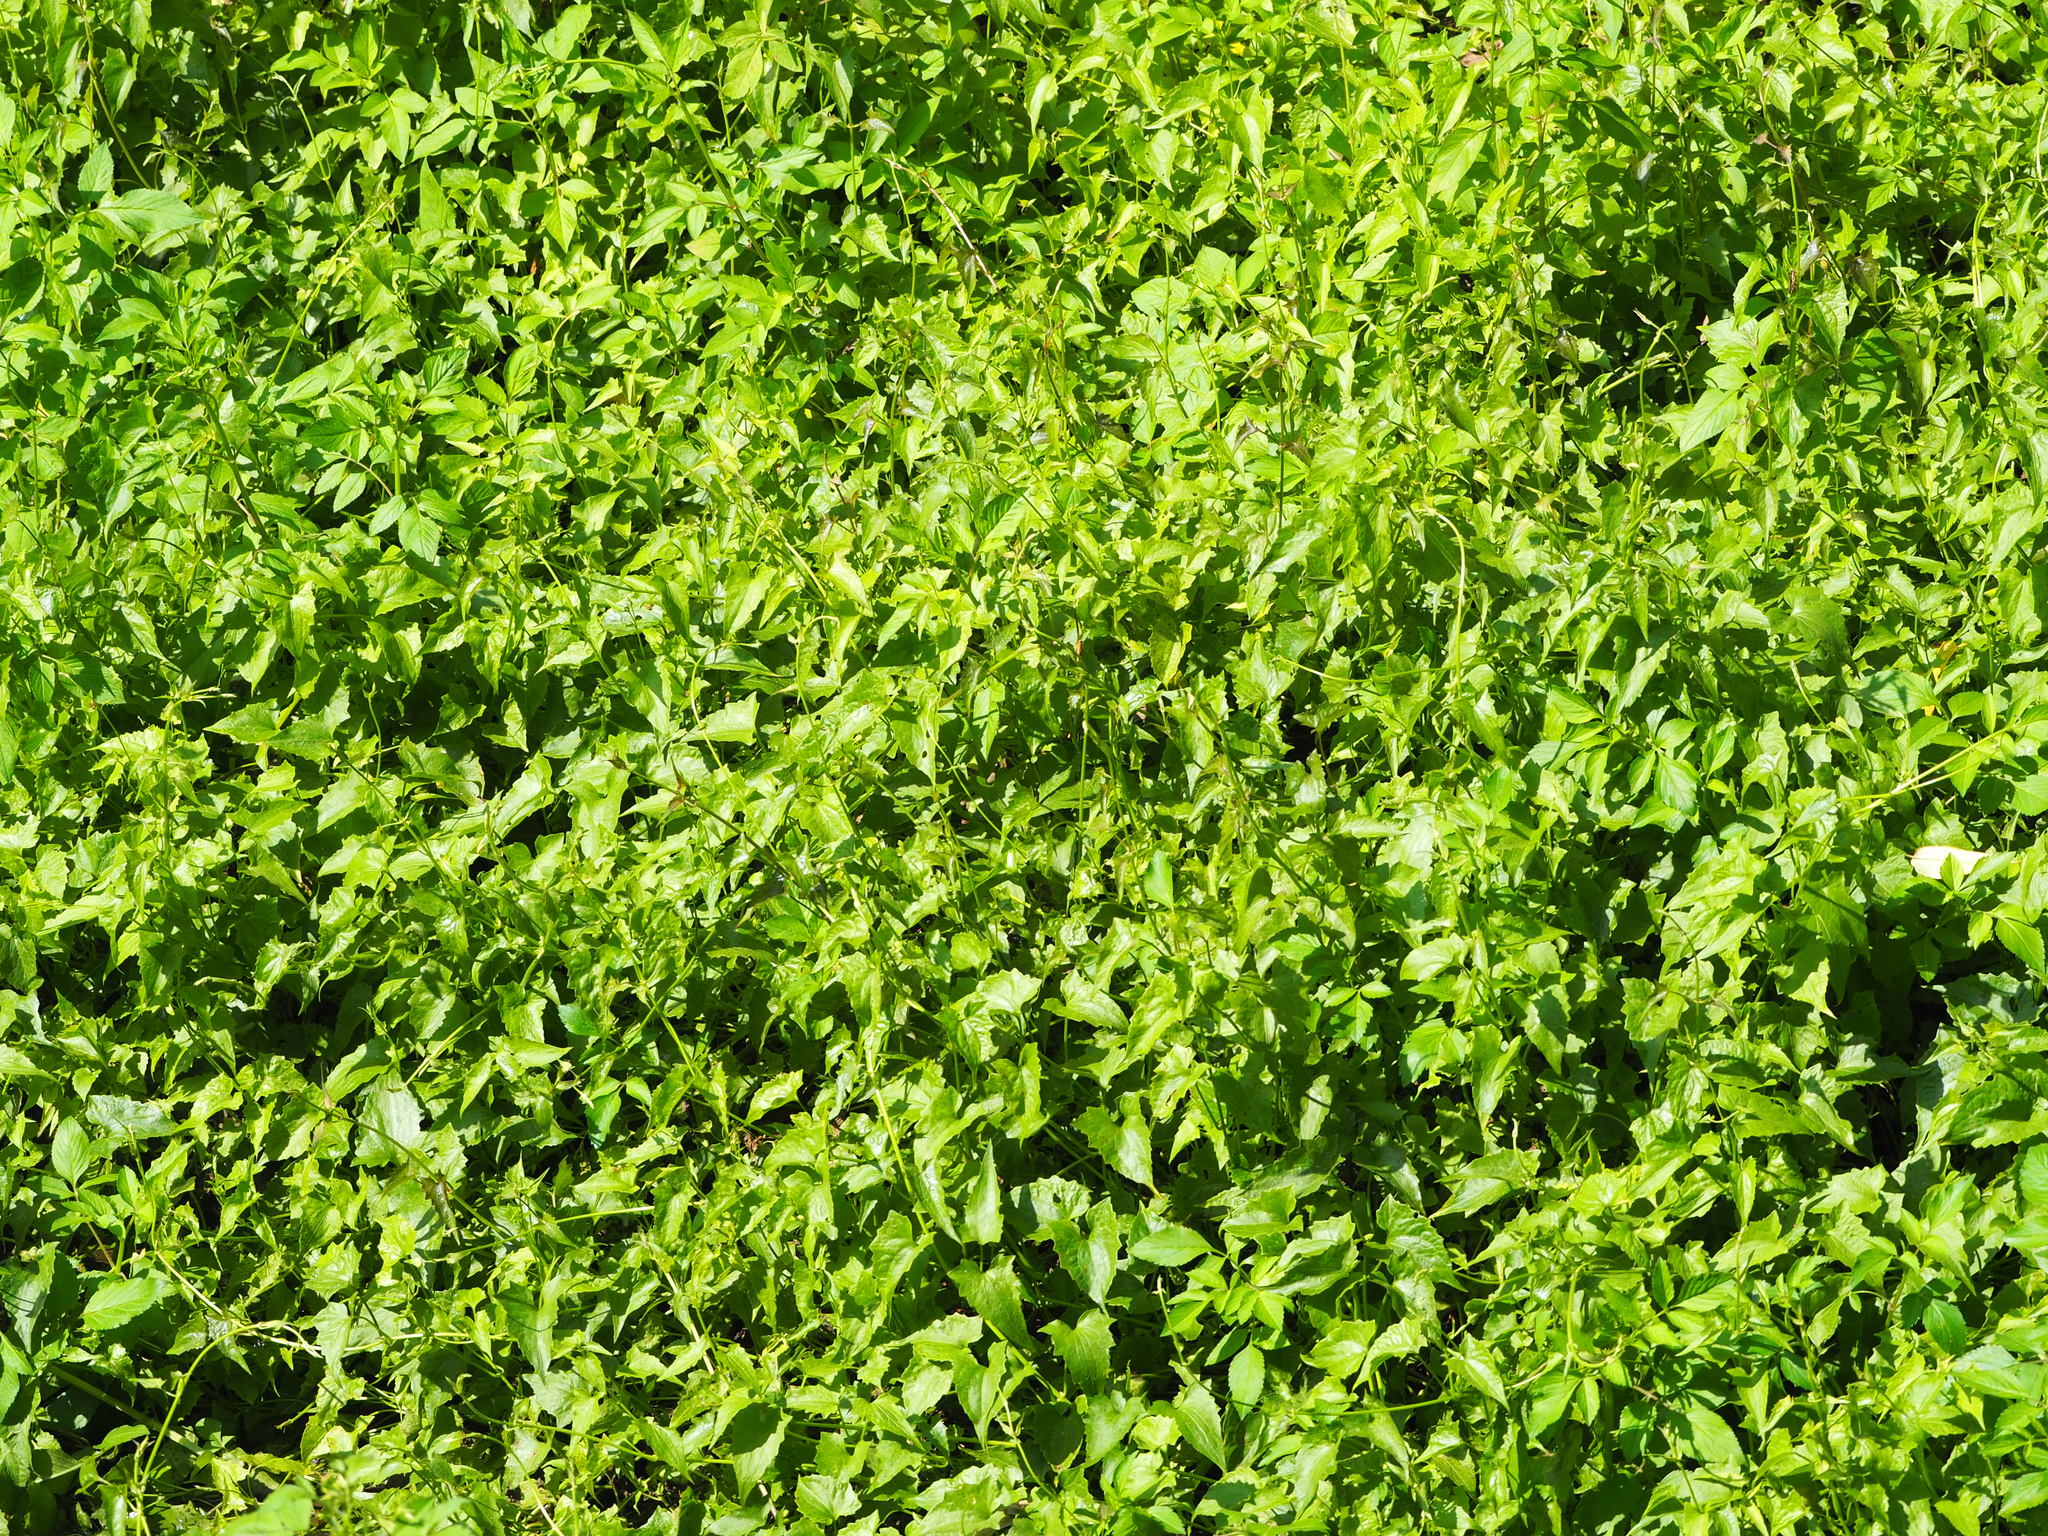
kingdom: Plantae
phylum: Tracheophyta
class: Magnoliopsida
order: Asterales
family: Asteraceae
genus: Mikania
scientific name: Mikania micrantha
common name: Mile-a-minute
